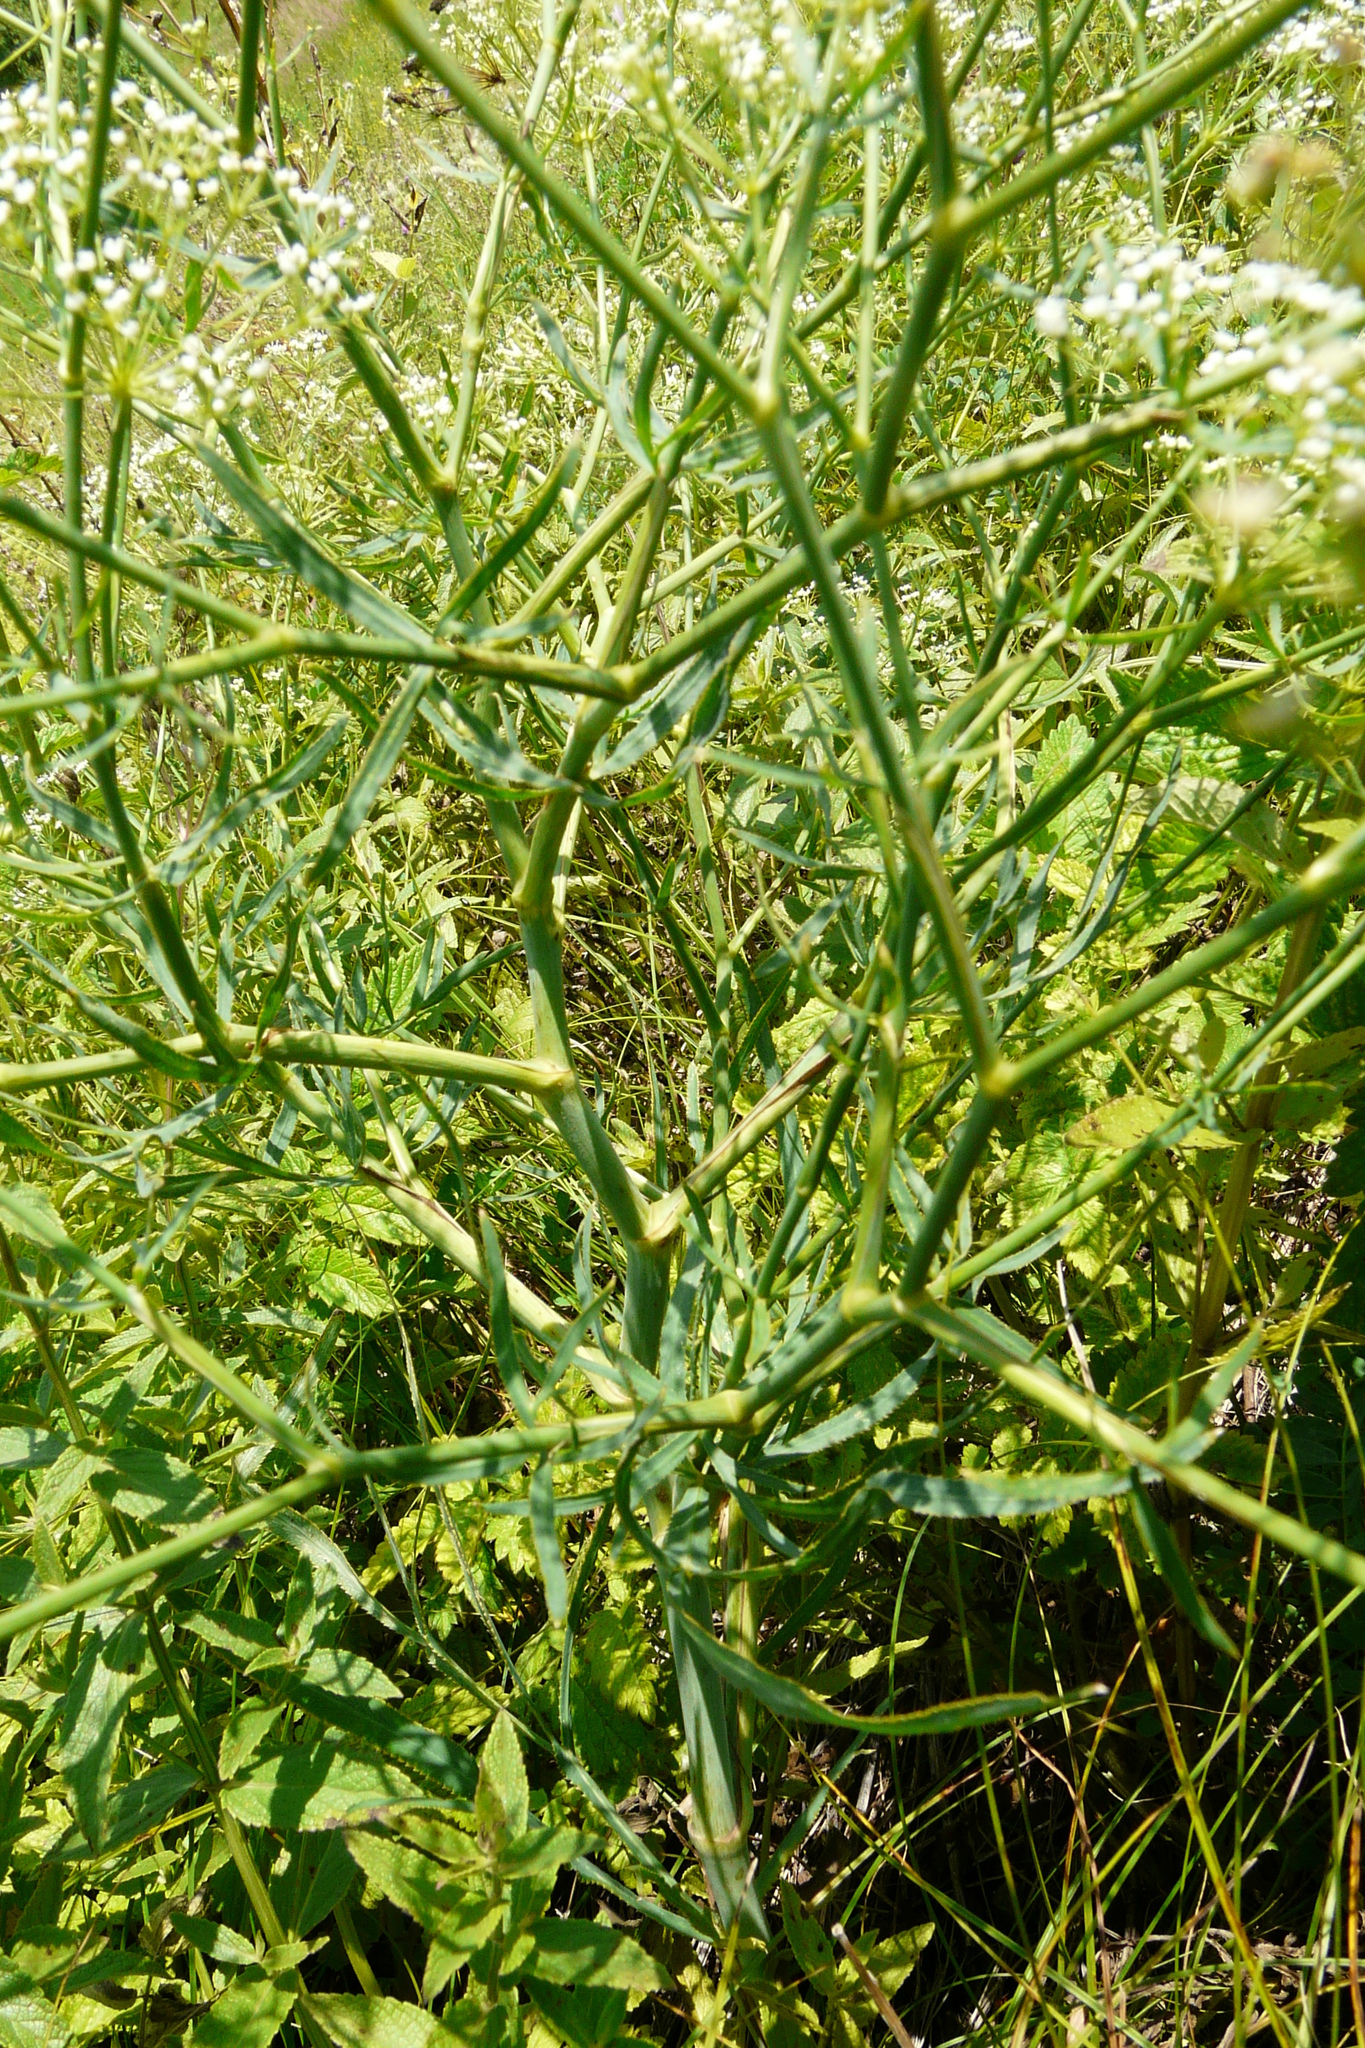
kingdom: Plantae
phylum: Tracheophyta
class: Magnoliopsida
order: Apiales
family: Apiaceae
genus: Falcaria
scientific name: Falcaria vulgaris
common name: Longleaf
